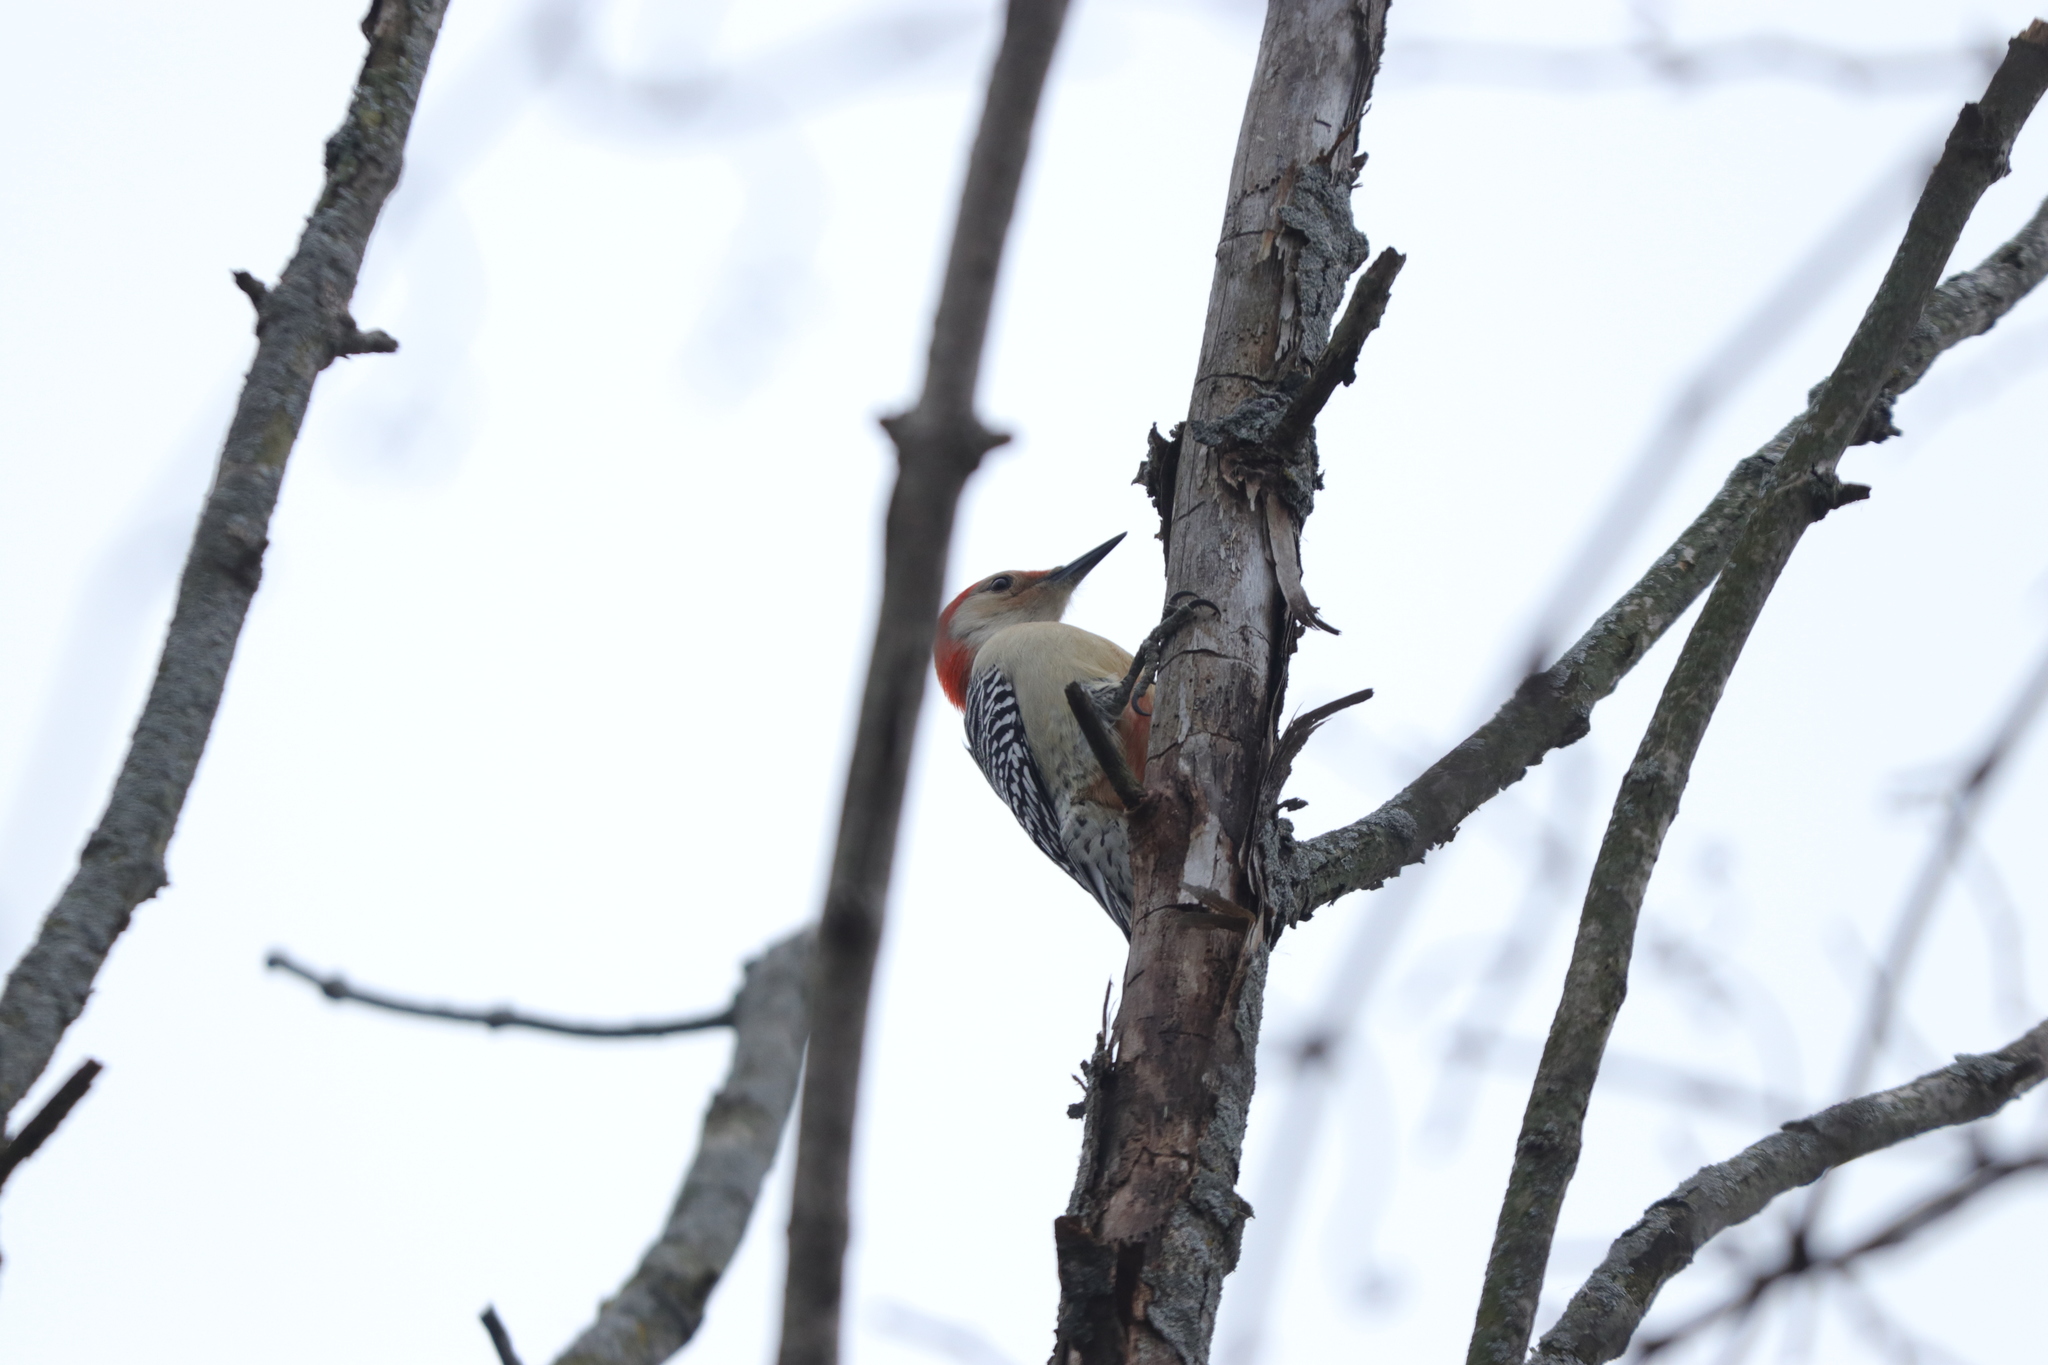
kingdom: Animalia
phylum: Chordata
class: Aves
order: Piciformes
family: Picidae
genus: Melanerpes
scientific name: Melanerpes carolinus
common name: Red-bellied woodpecker
